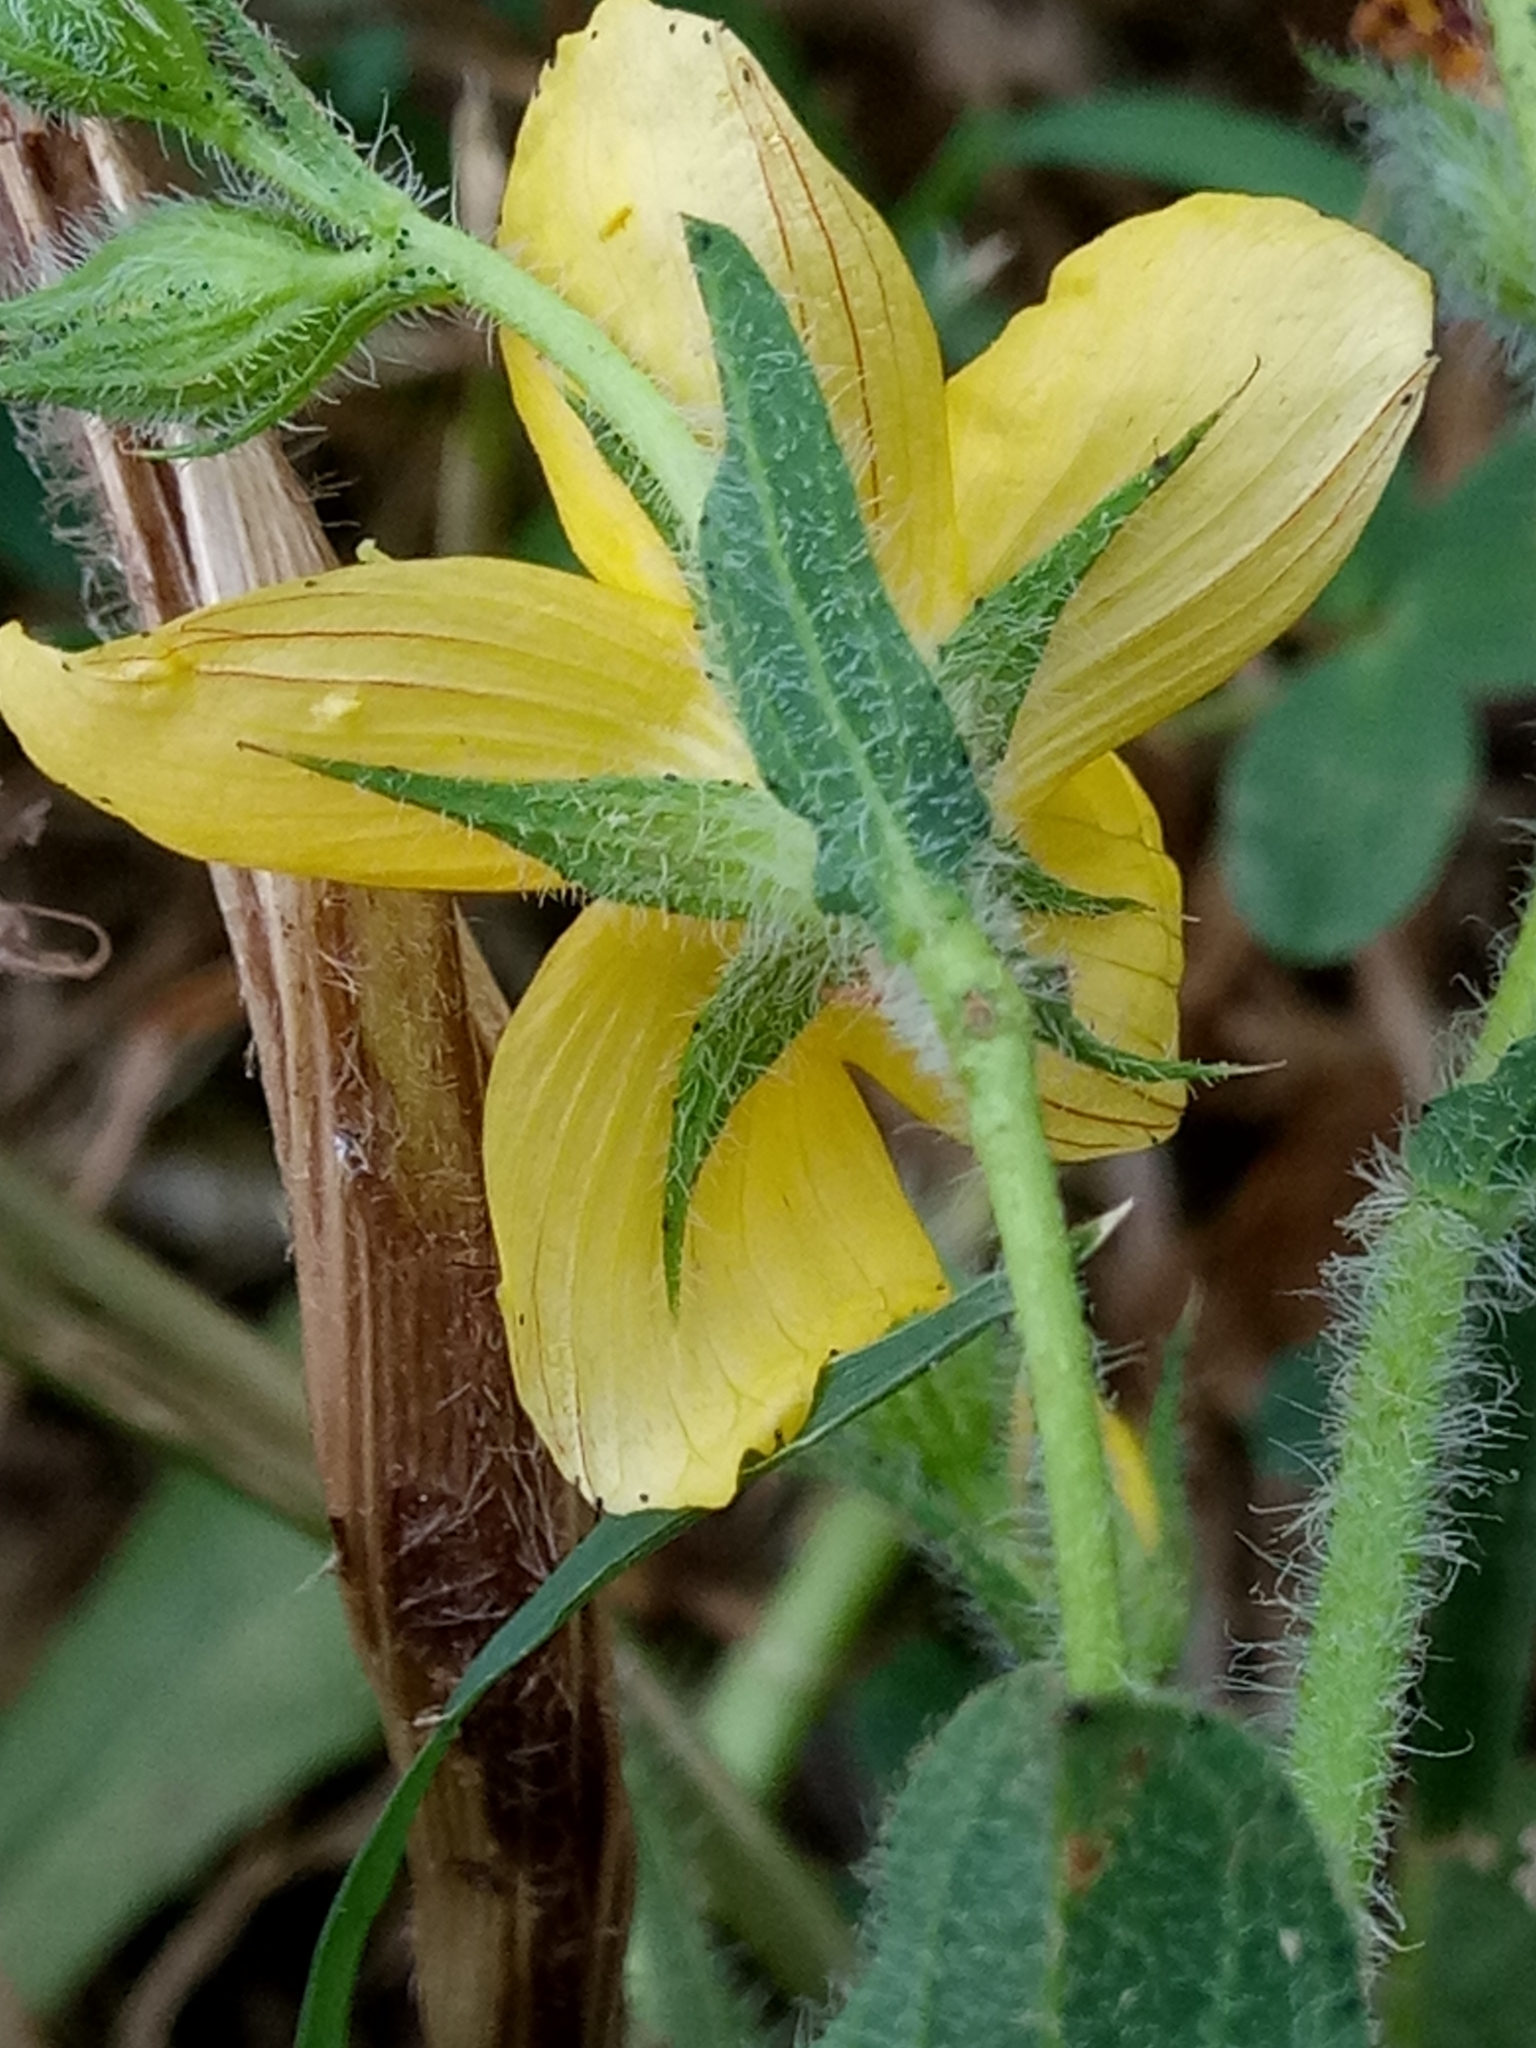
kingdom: Plantae
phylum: Tracheophyta
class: Magnoliopsida
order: Malpighiales
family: Hypericaceae
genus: Hypericum
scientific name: Hypericum pubescens
